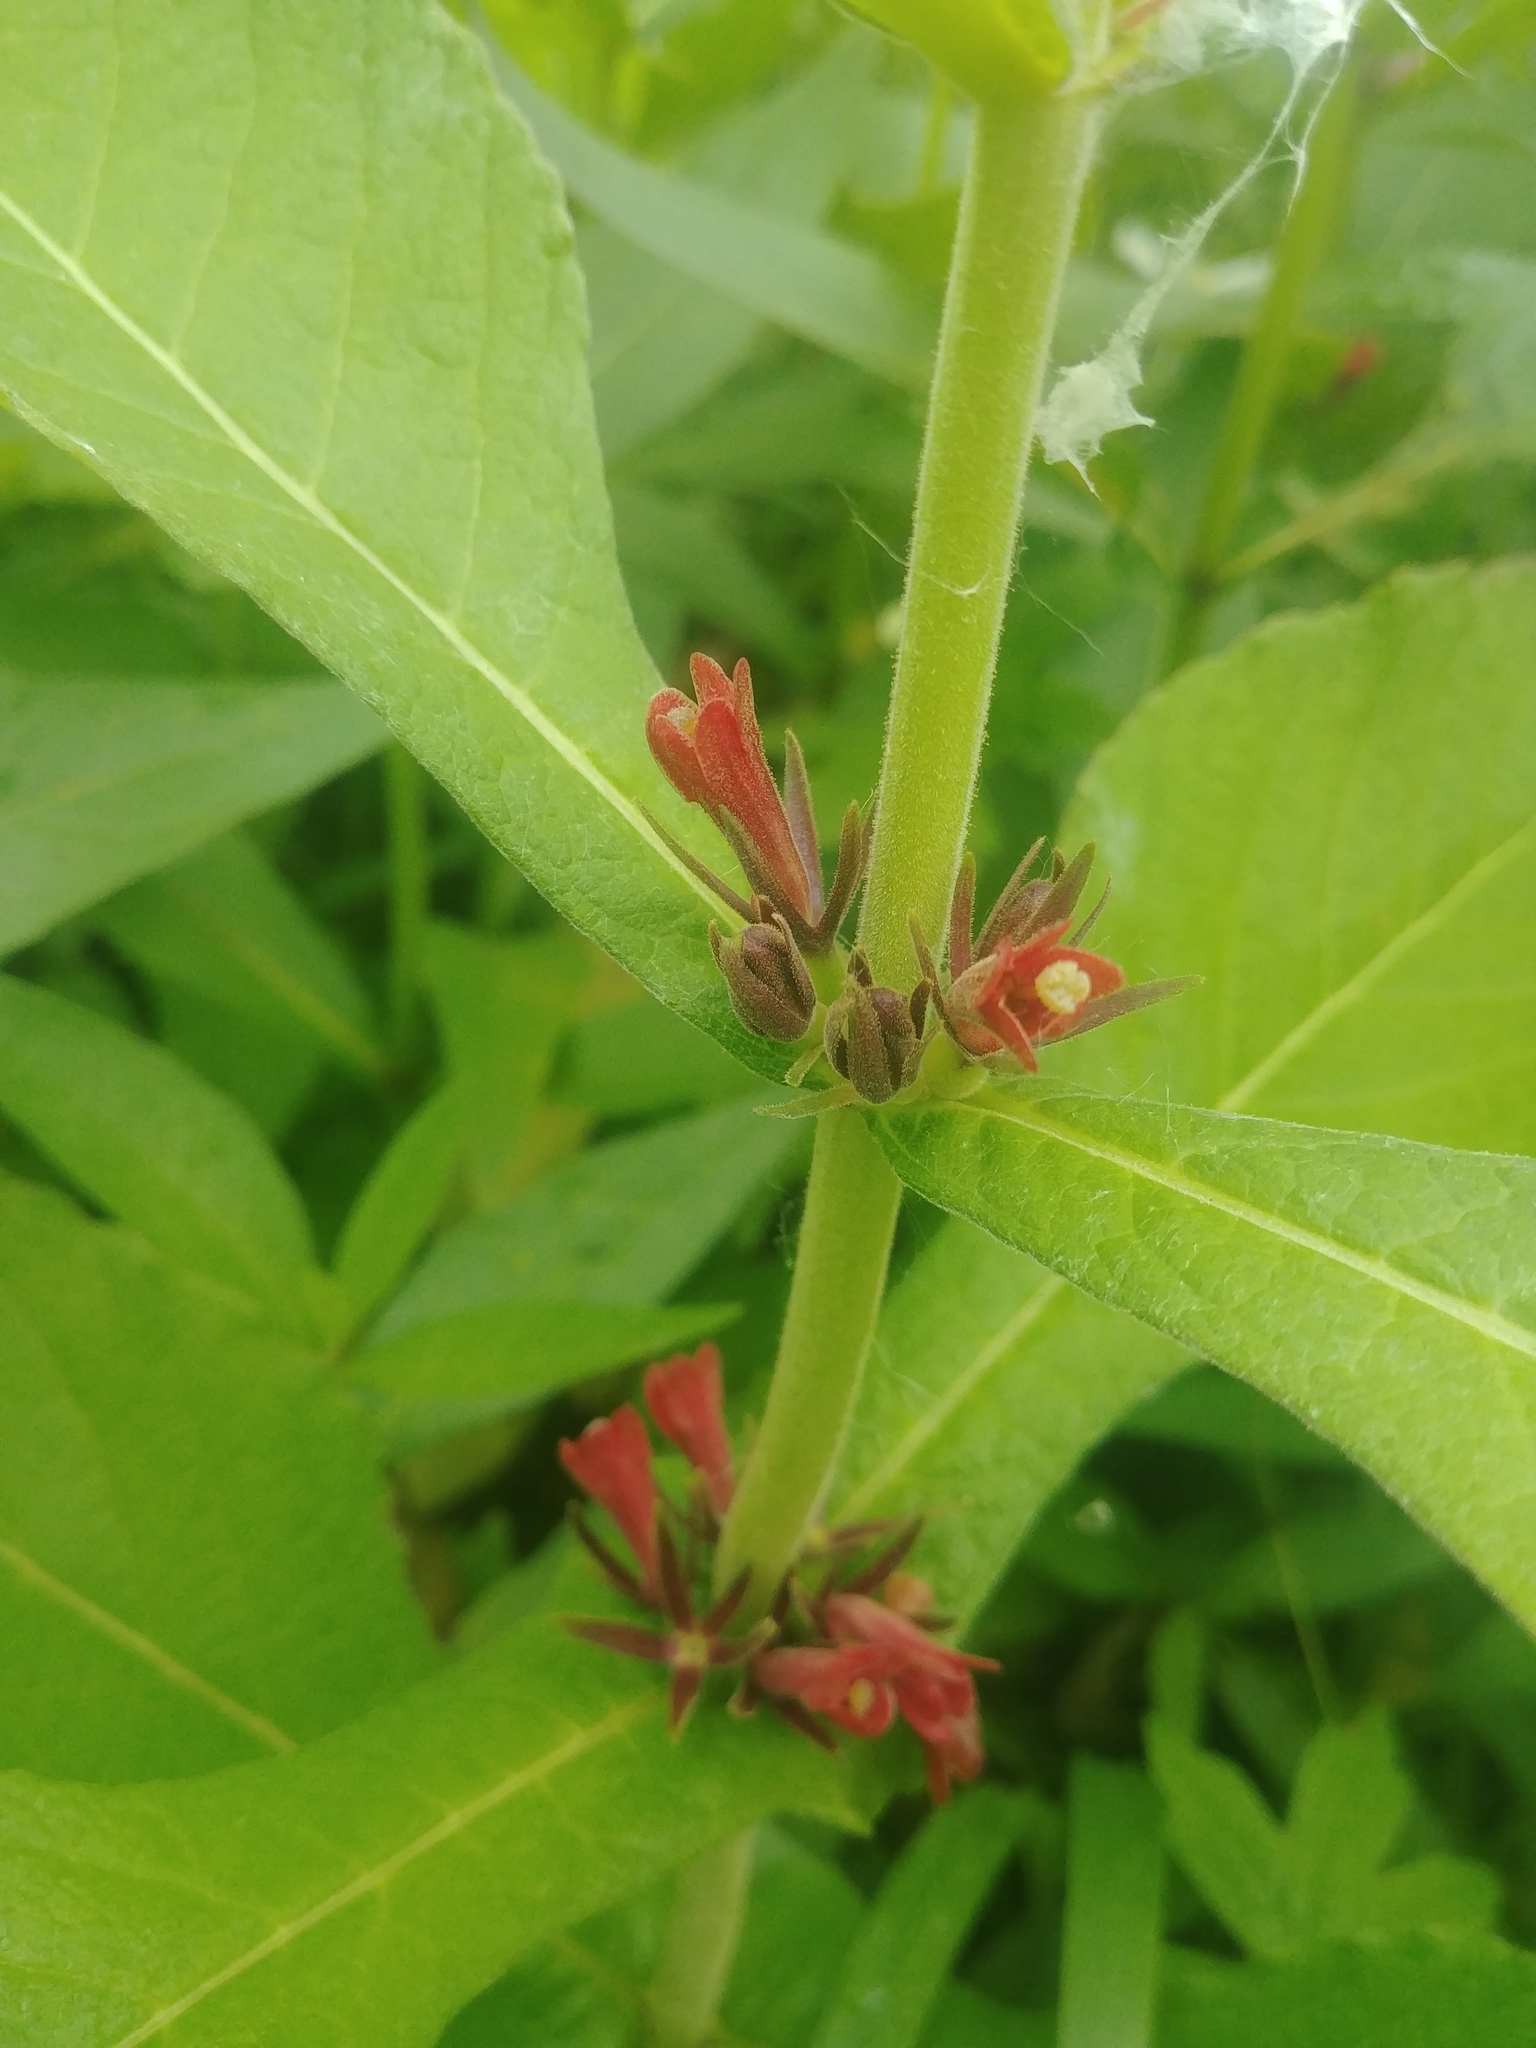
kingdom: Plantae
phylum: Tracheophyta
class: Magnoliopsida
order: Dipsacales
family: Caprifoliaceae
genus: Triosteum
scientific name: Triosteum aurantiacum
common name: Coffee tinker's-weed
